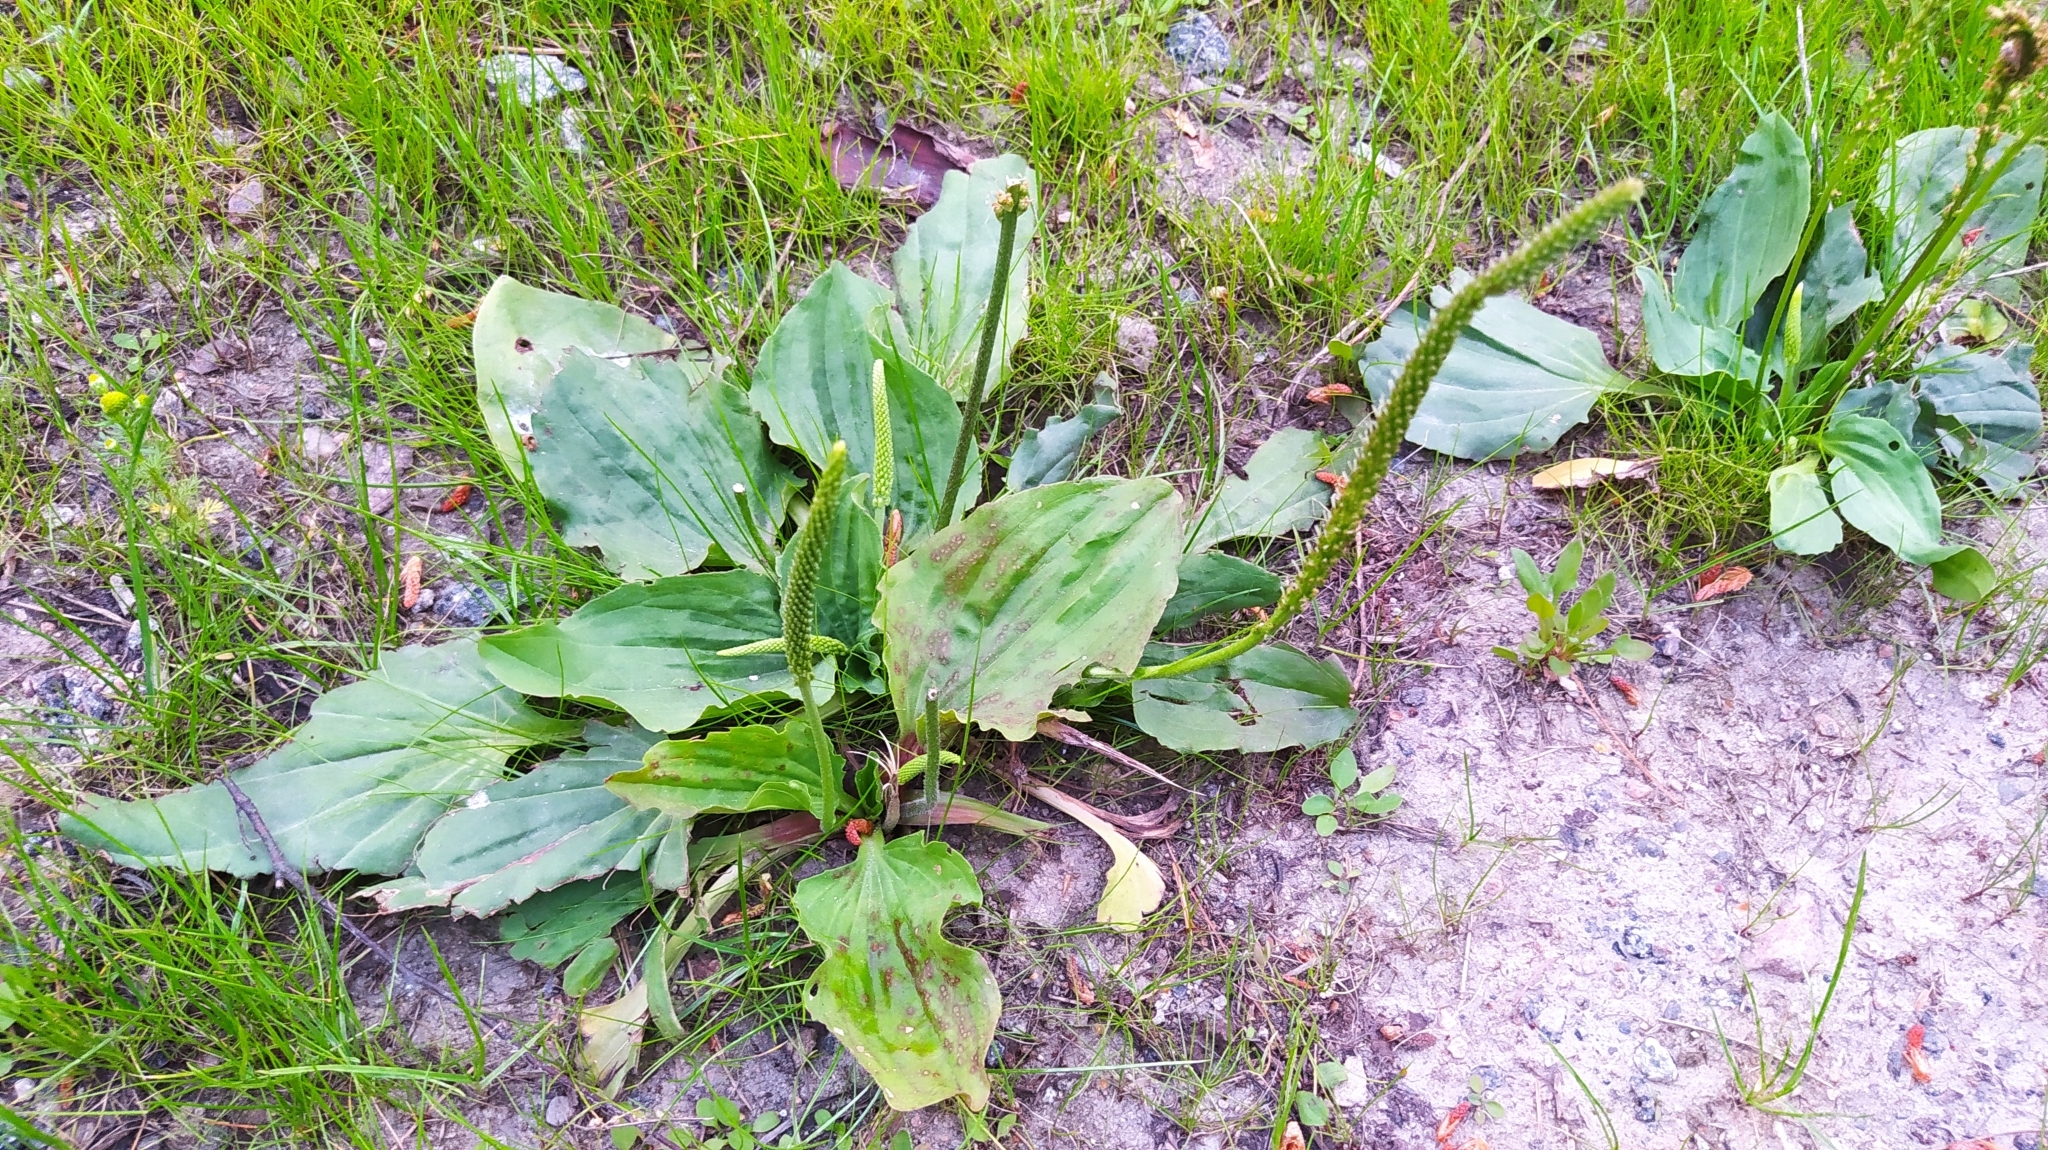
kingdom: Plantae
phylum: Tracheophyta
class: Magnoliopsida
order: Lamiales
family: Plantaginaceae
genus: Plantago
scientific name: Plantago major
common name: Common plantain
